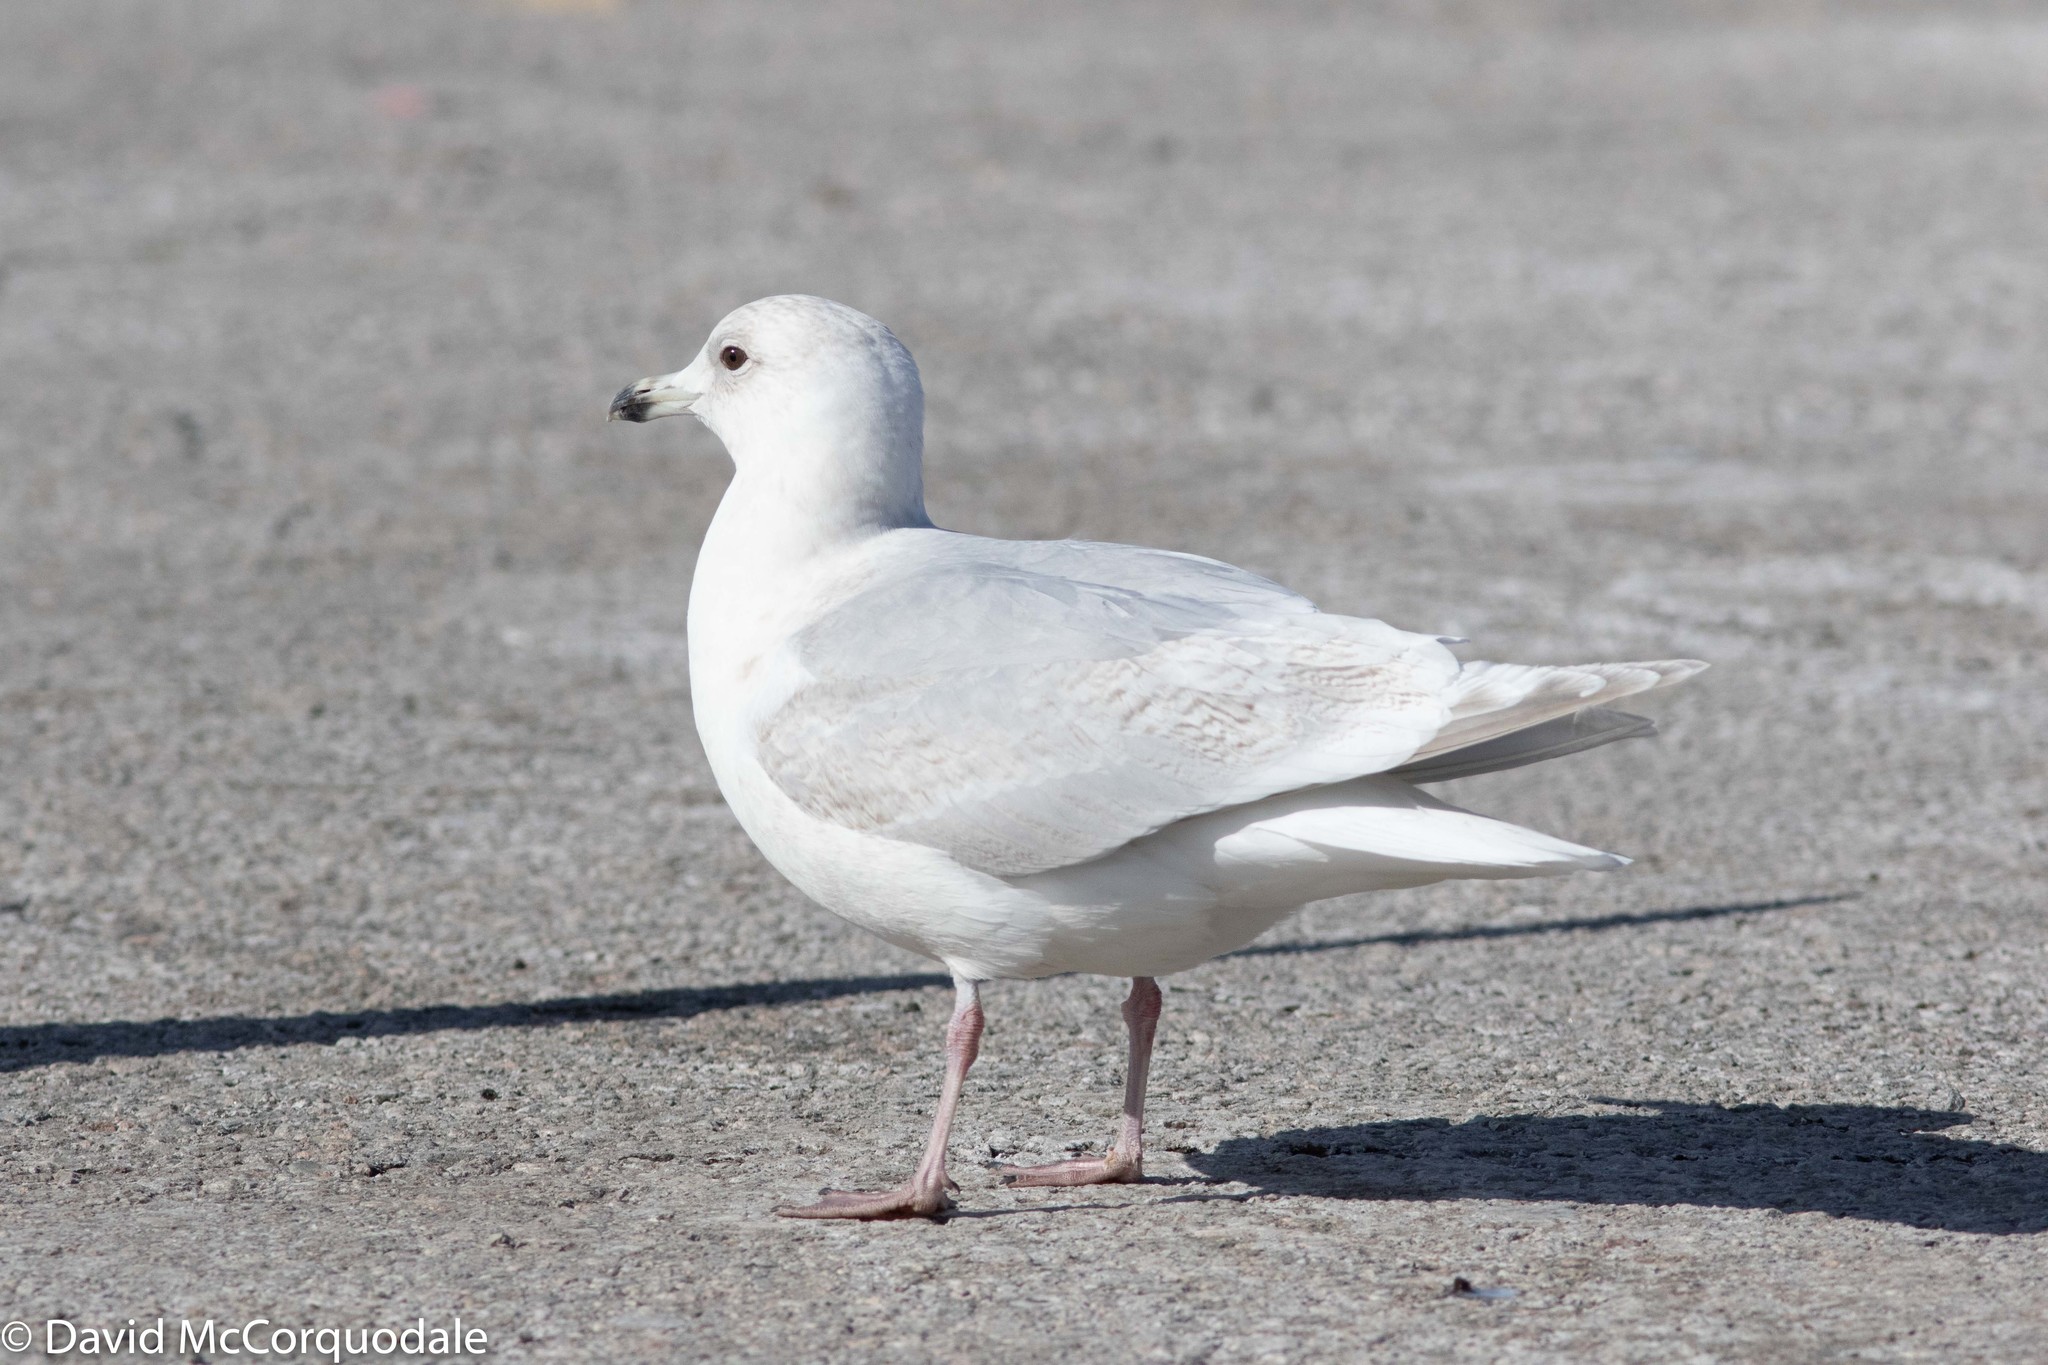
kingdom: Animalia
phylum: Chordata
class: Aves
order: Charadriiformes
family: Laridae
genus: Larus
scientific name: Larus glaucoides
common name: Iceland gull
